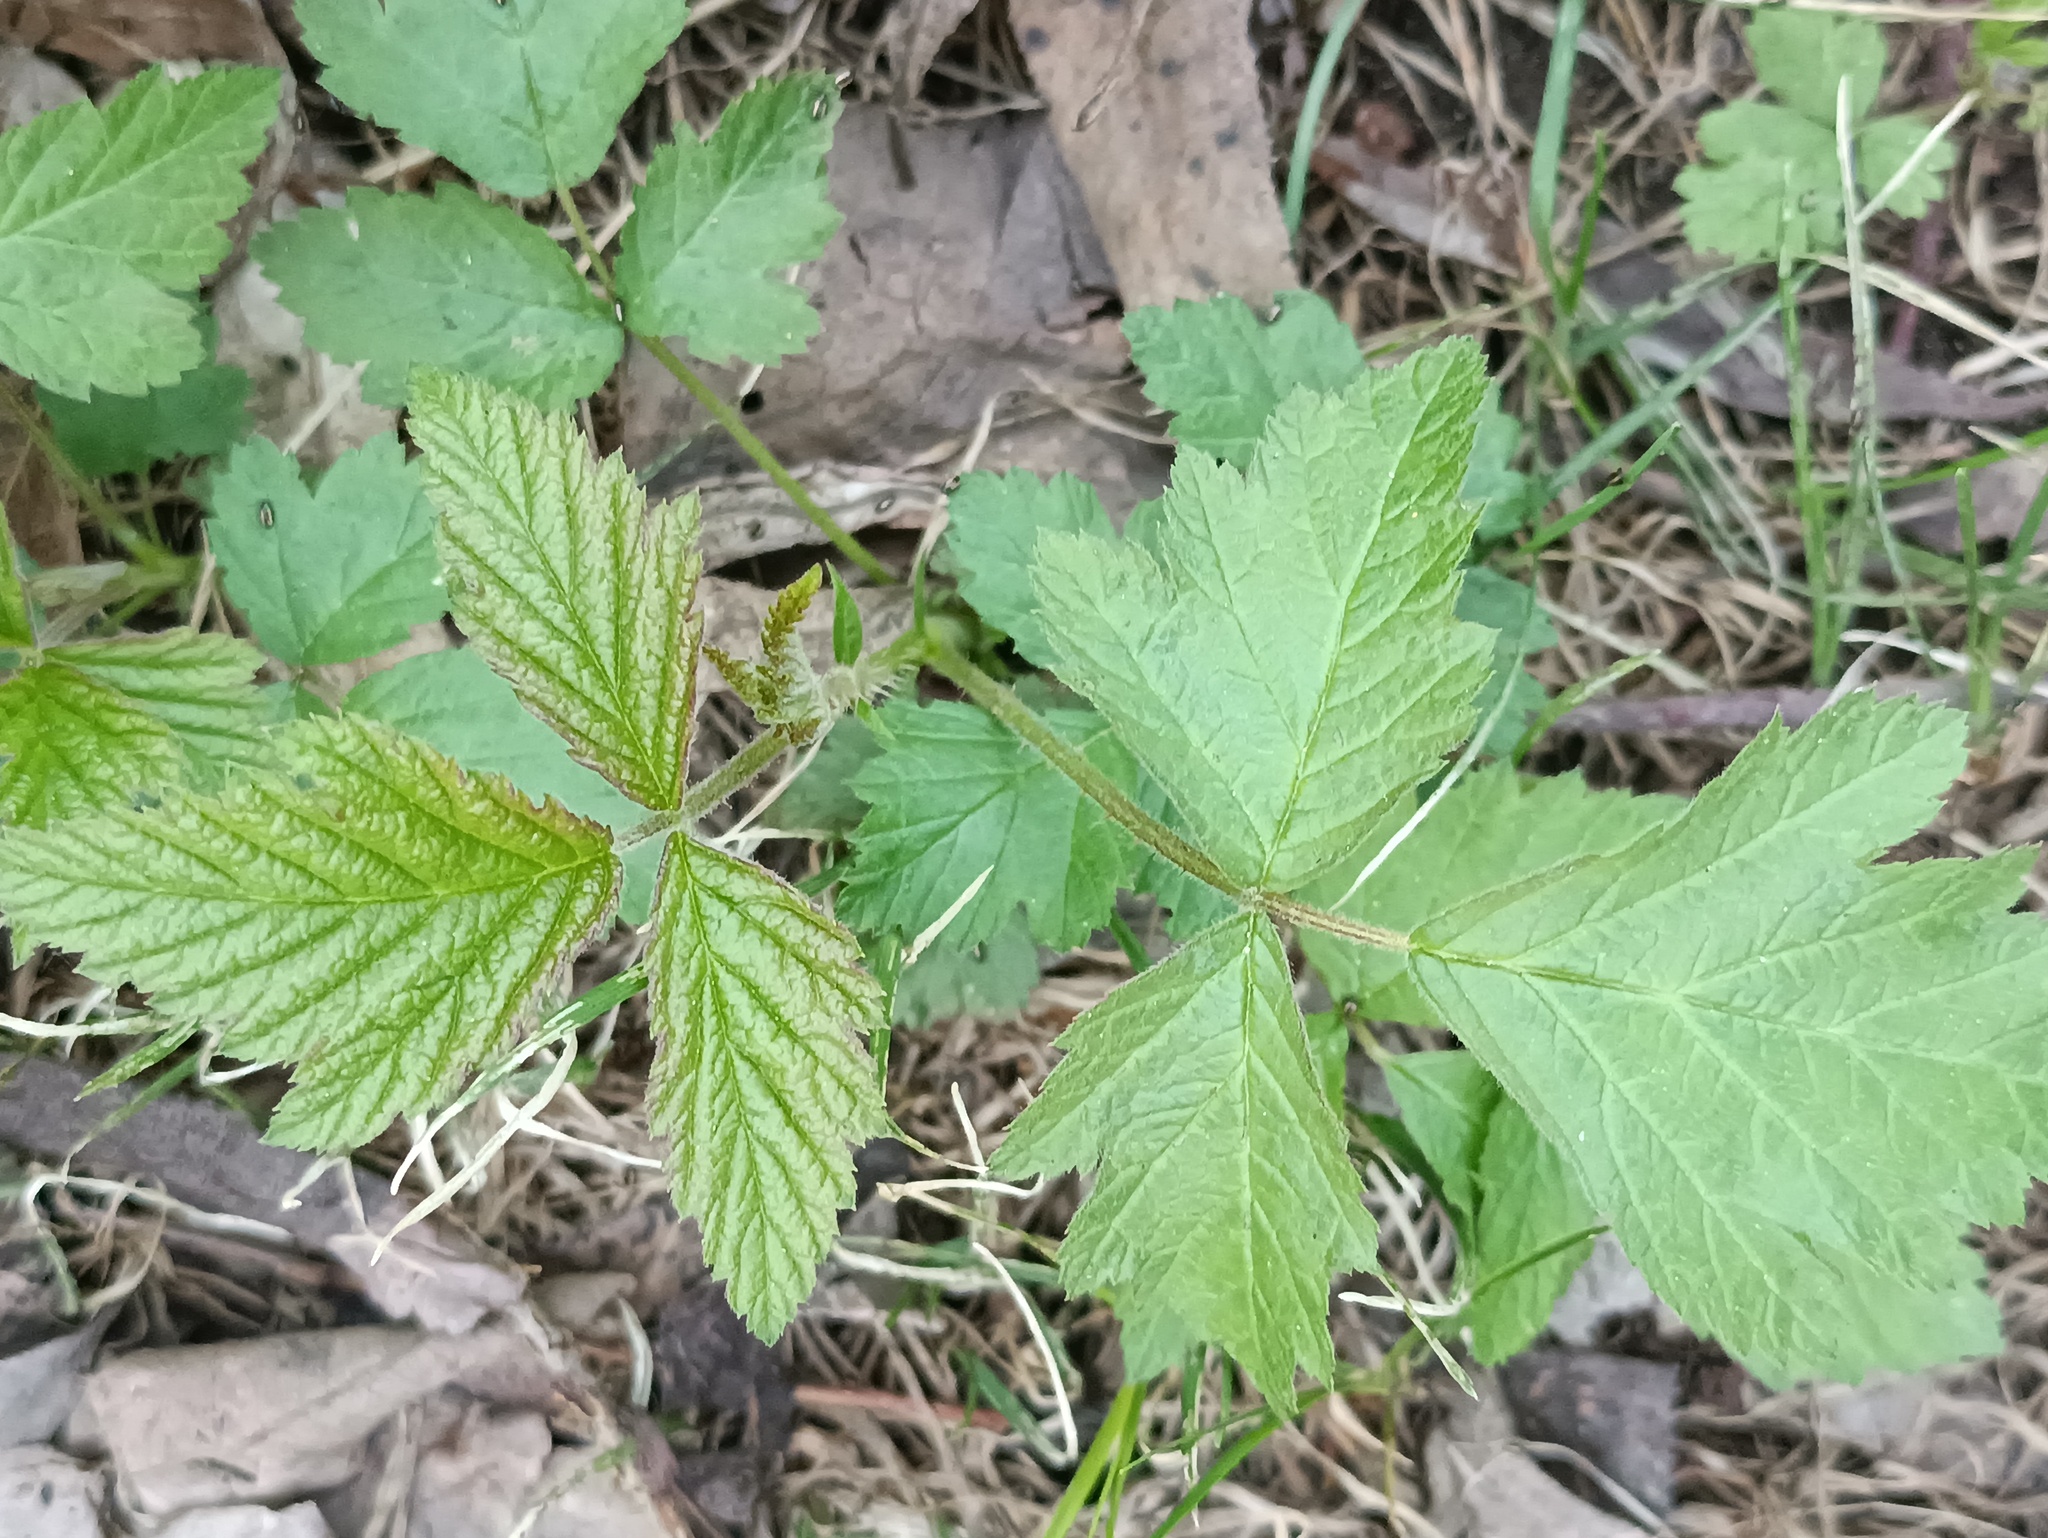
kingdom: Plantae
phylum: Tracheophyta
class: Magnoliopsida
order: Rosales
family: Rosaceae
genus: Rubus
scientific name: Rubus caesius
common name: Dewberry
